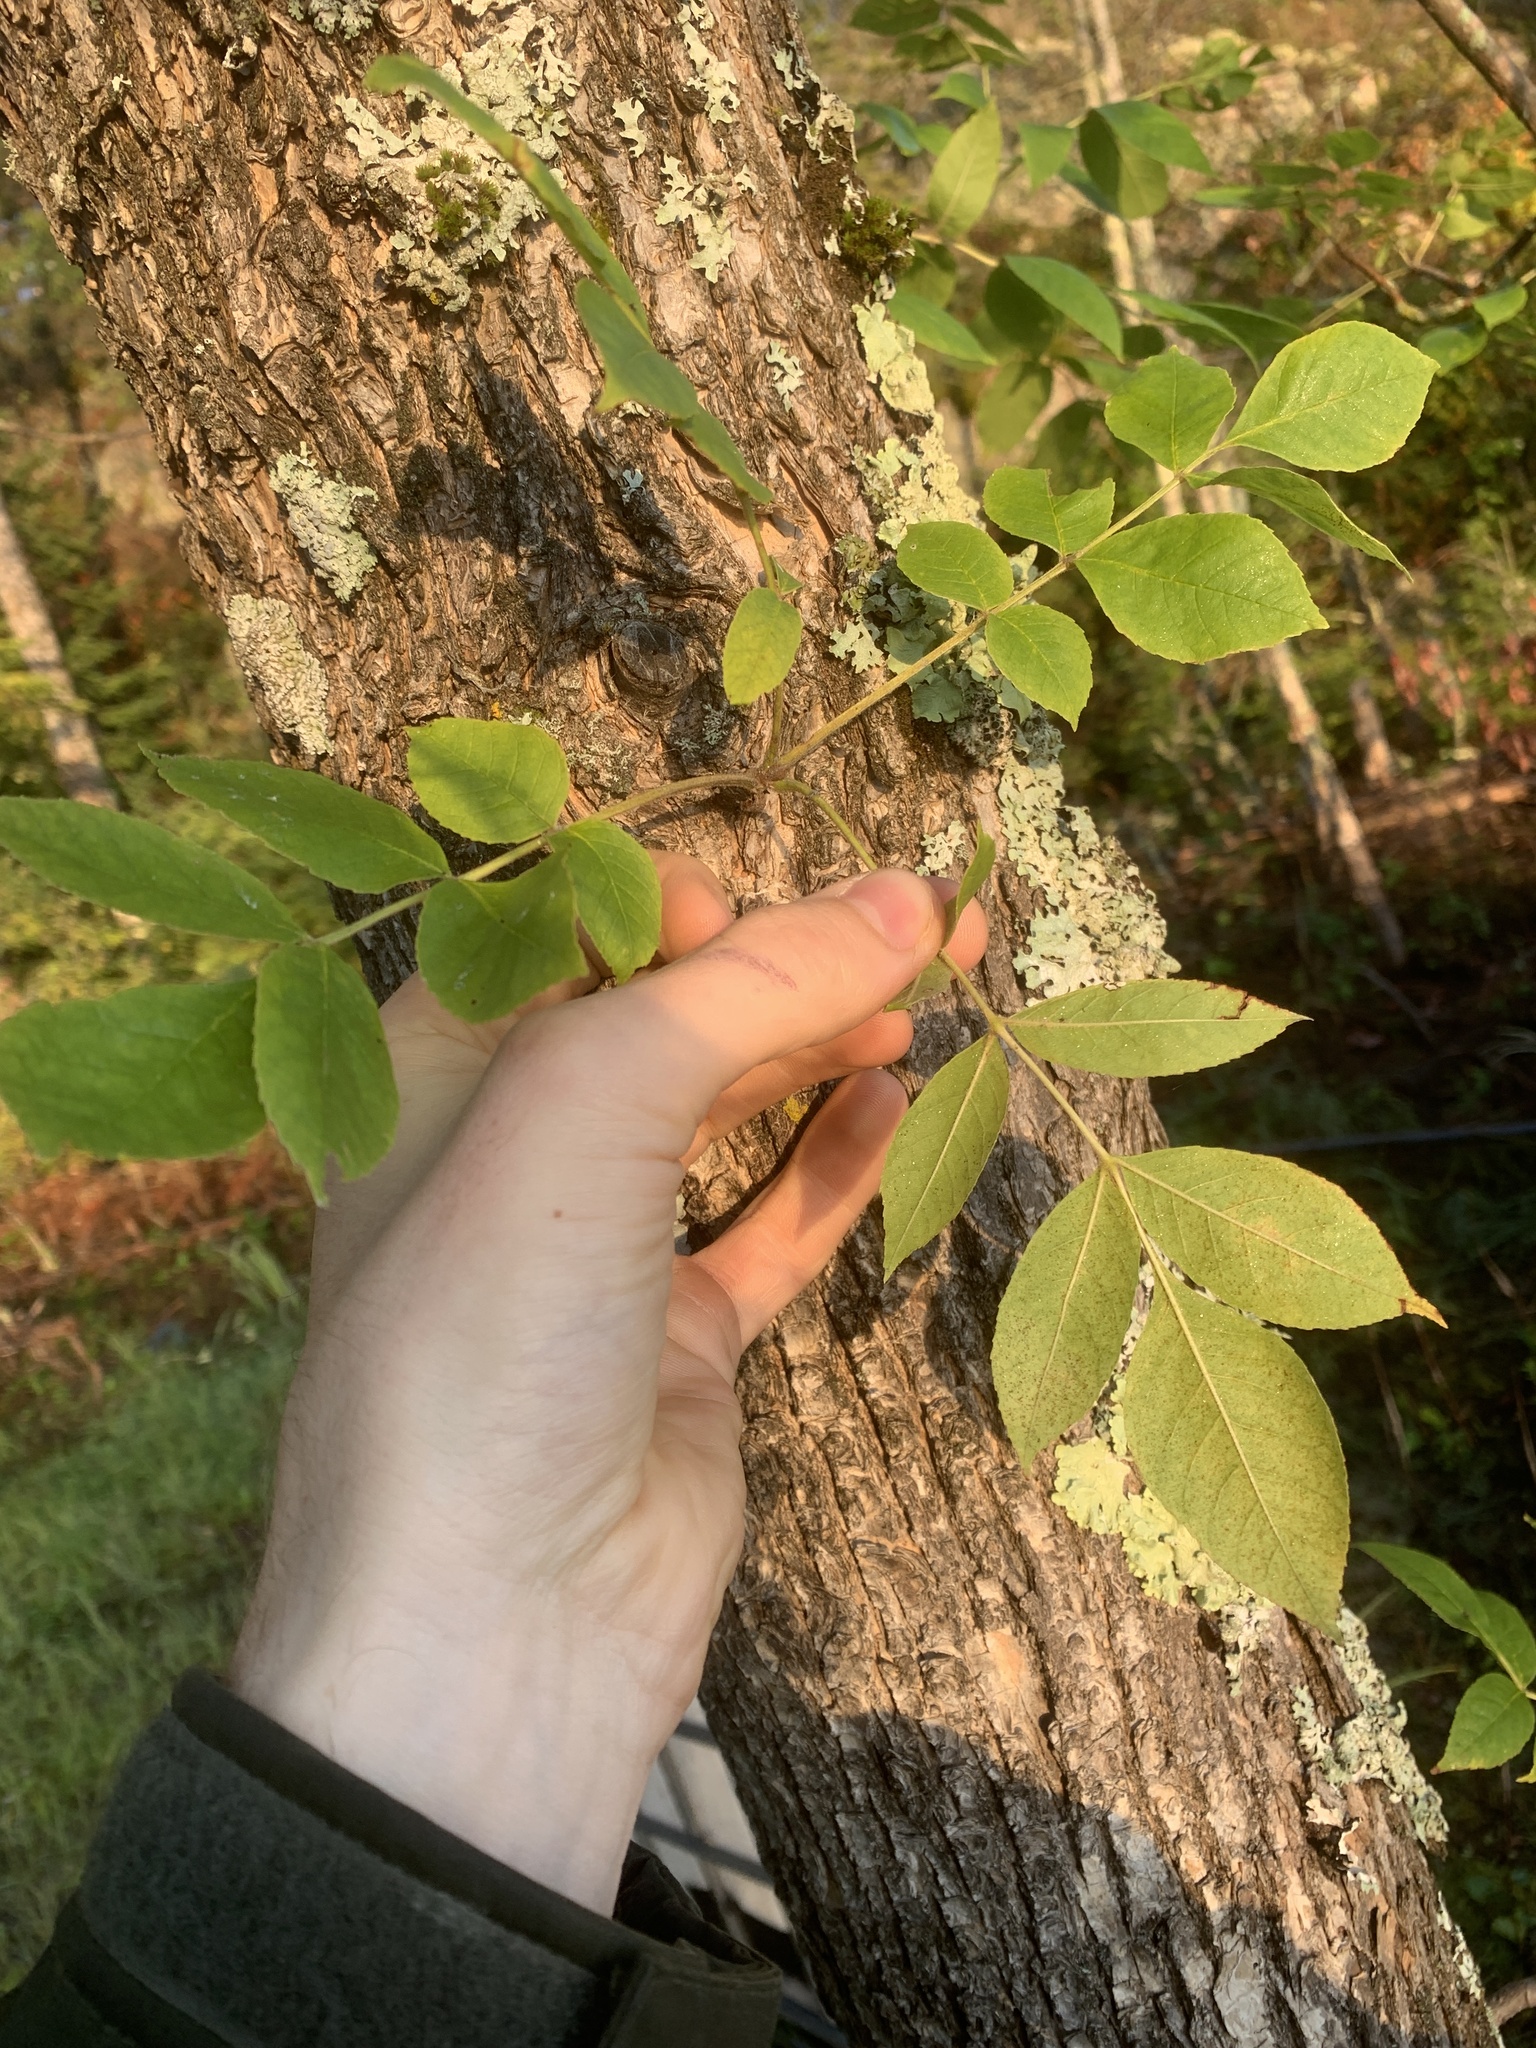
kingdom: Plantae
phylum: Tracheophyta
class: Magnoliopsida
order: Lamiales
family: Oleaceae
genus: Fraxinus
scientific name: Fraxinus pennsylvanica
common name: Green ash
